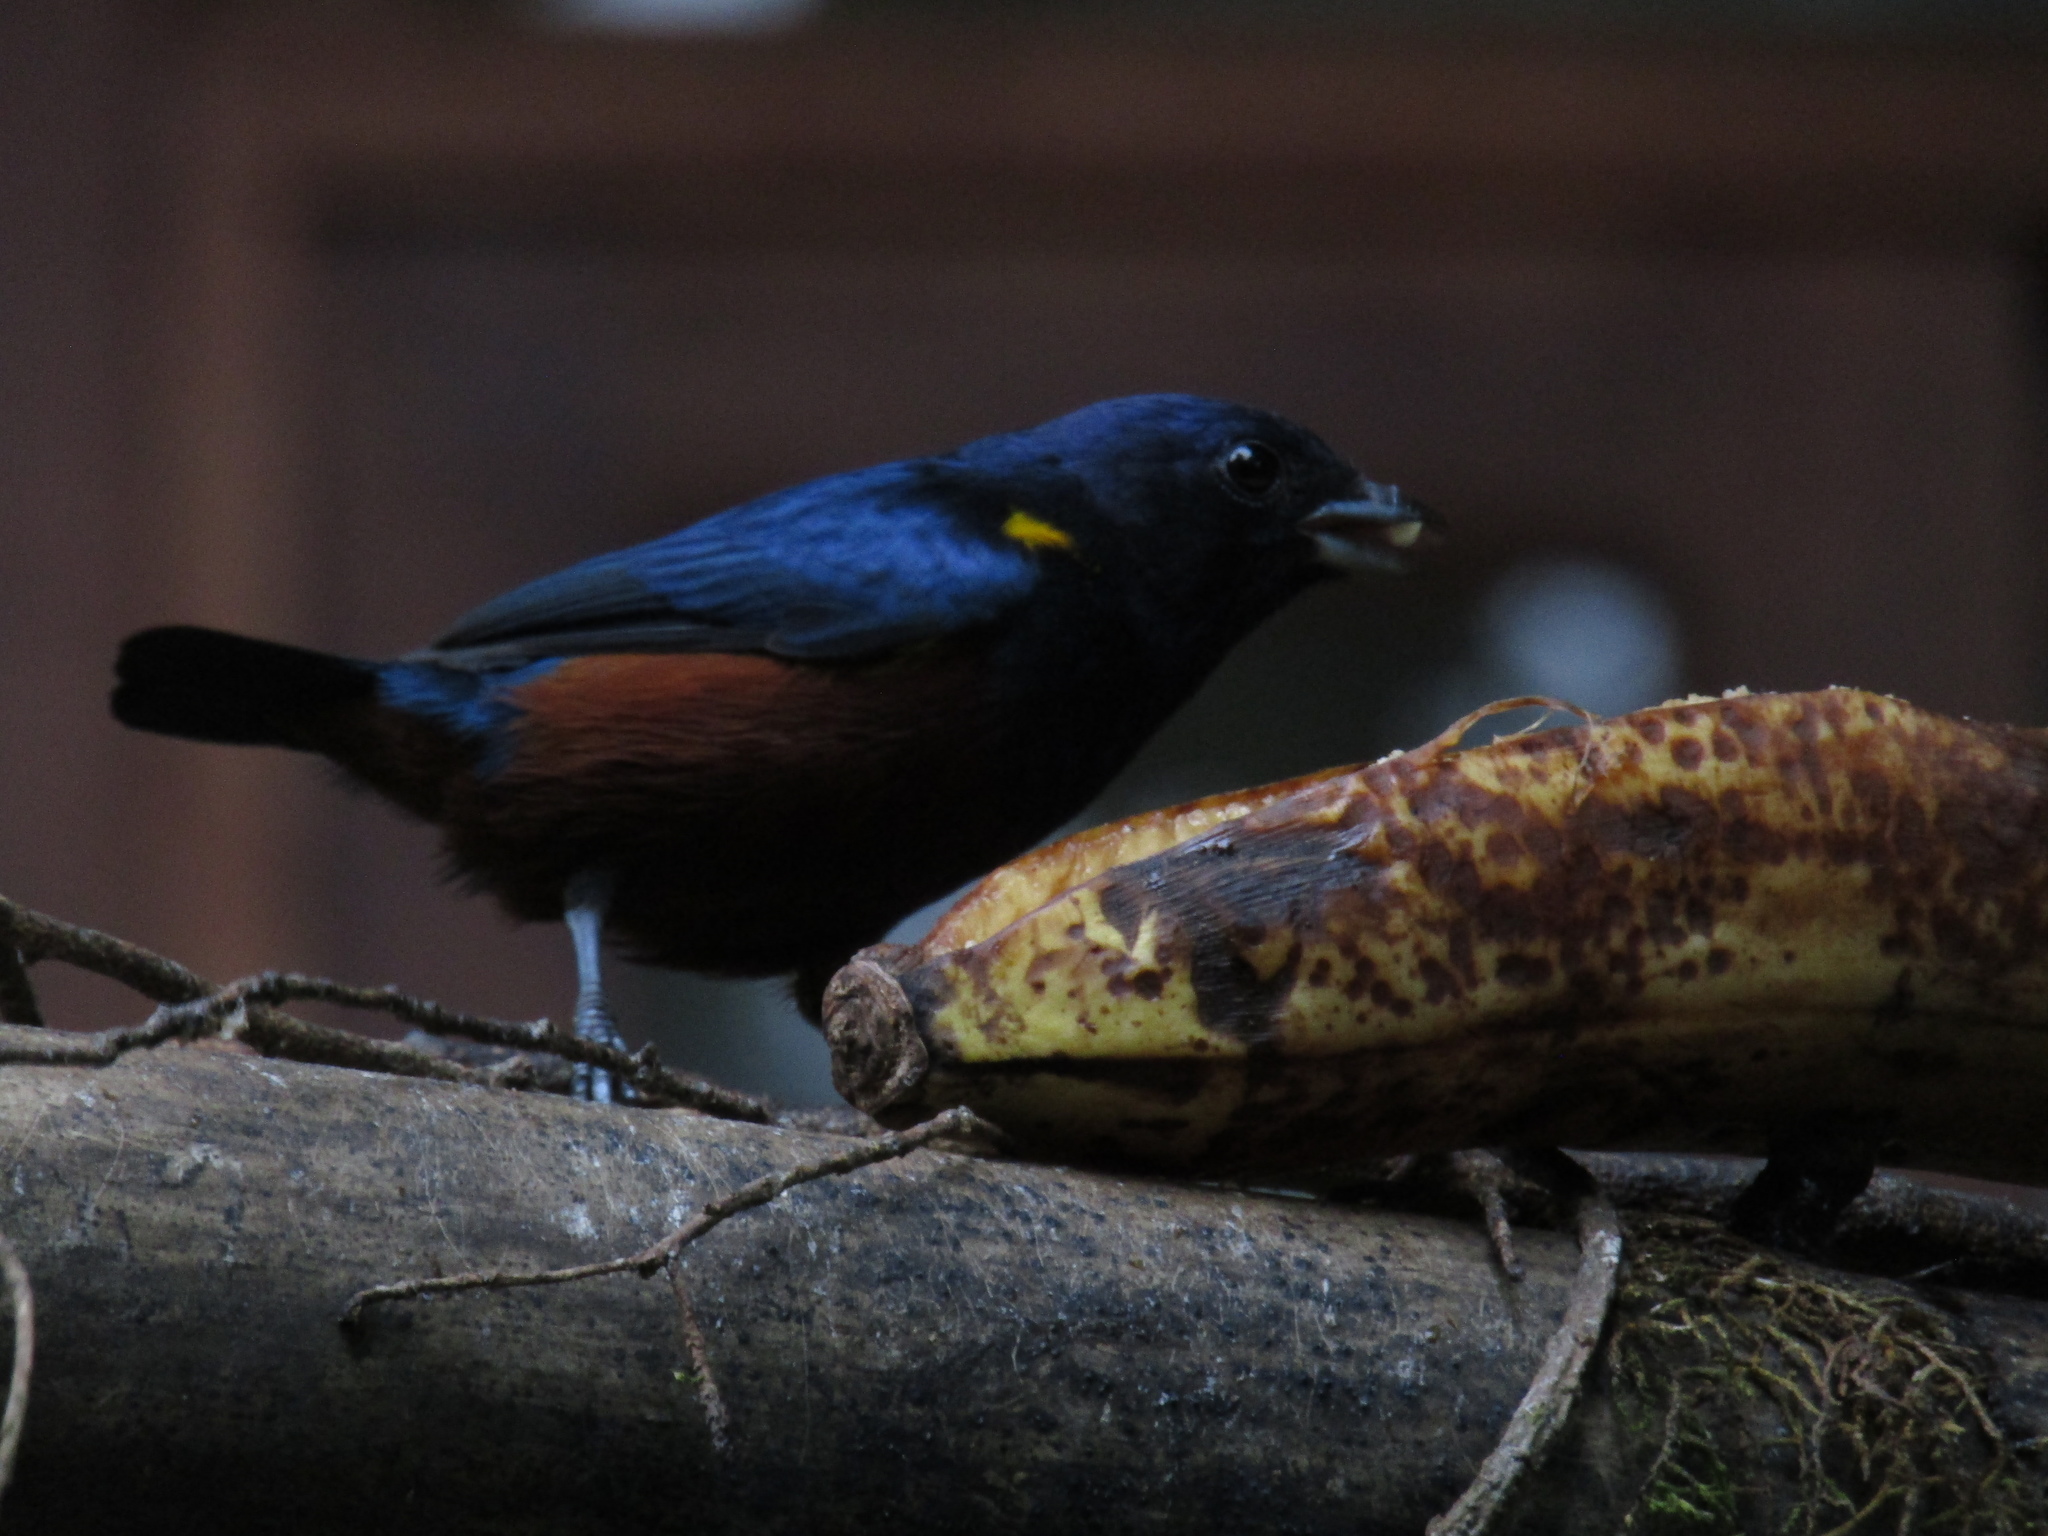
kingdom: Animalia
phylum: Chordata
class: Aves
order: Passeriformes
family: Fringillidae
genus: Euphonia
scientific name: Euphonia pectoralis
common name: Chestnut-bellied euphonia
